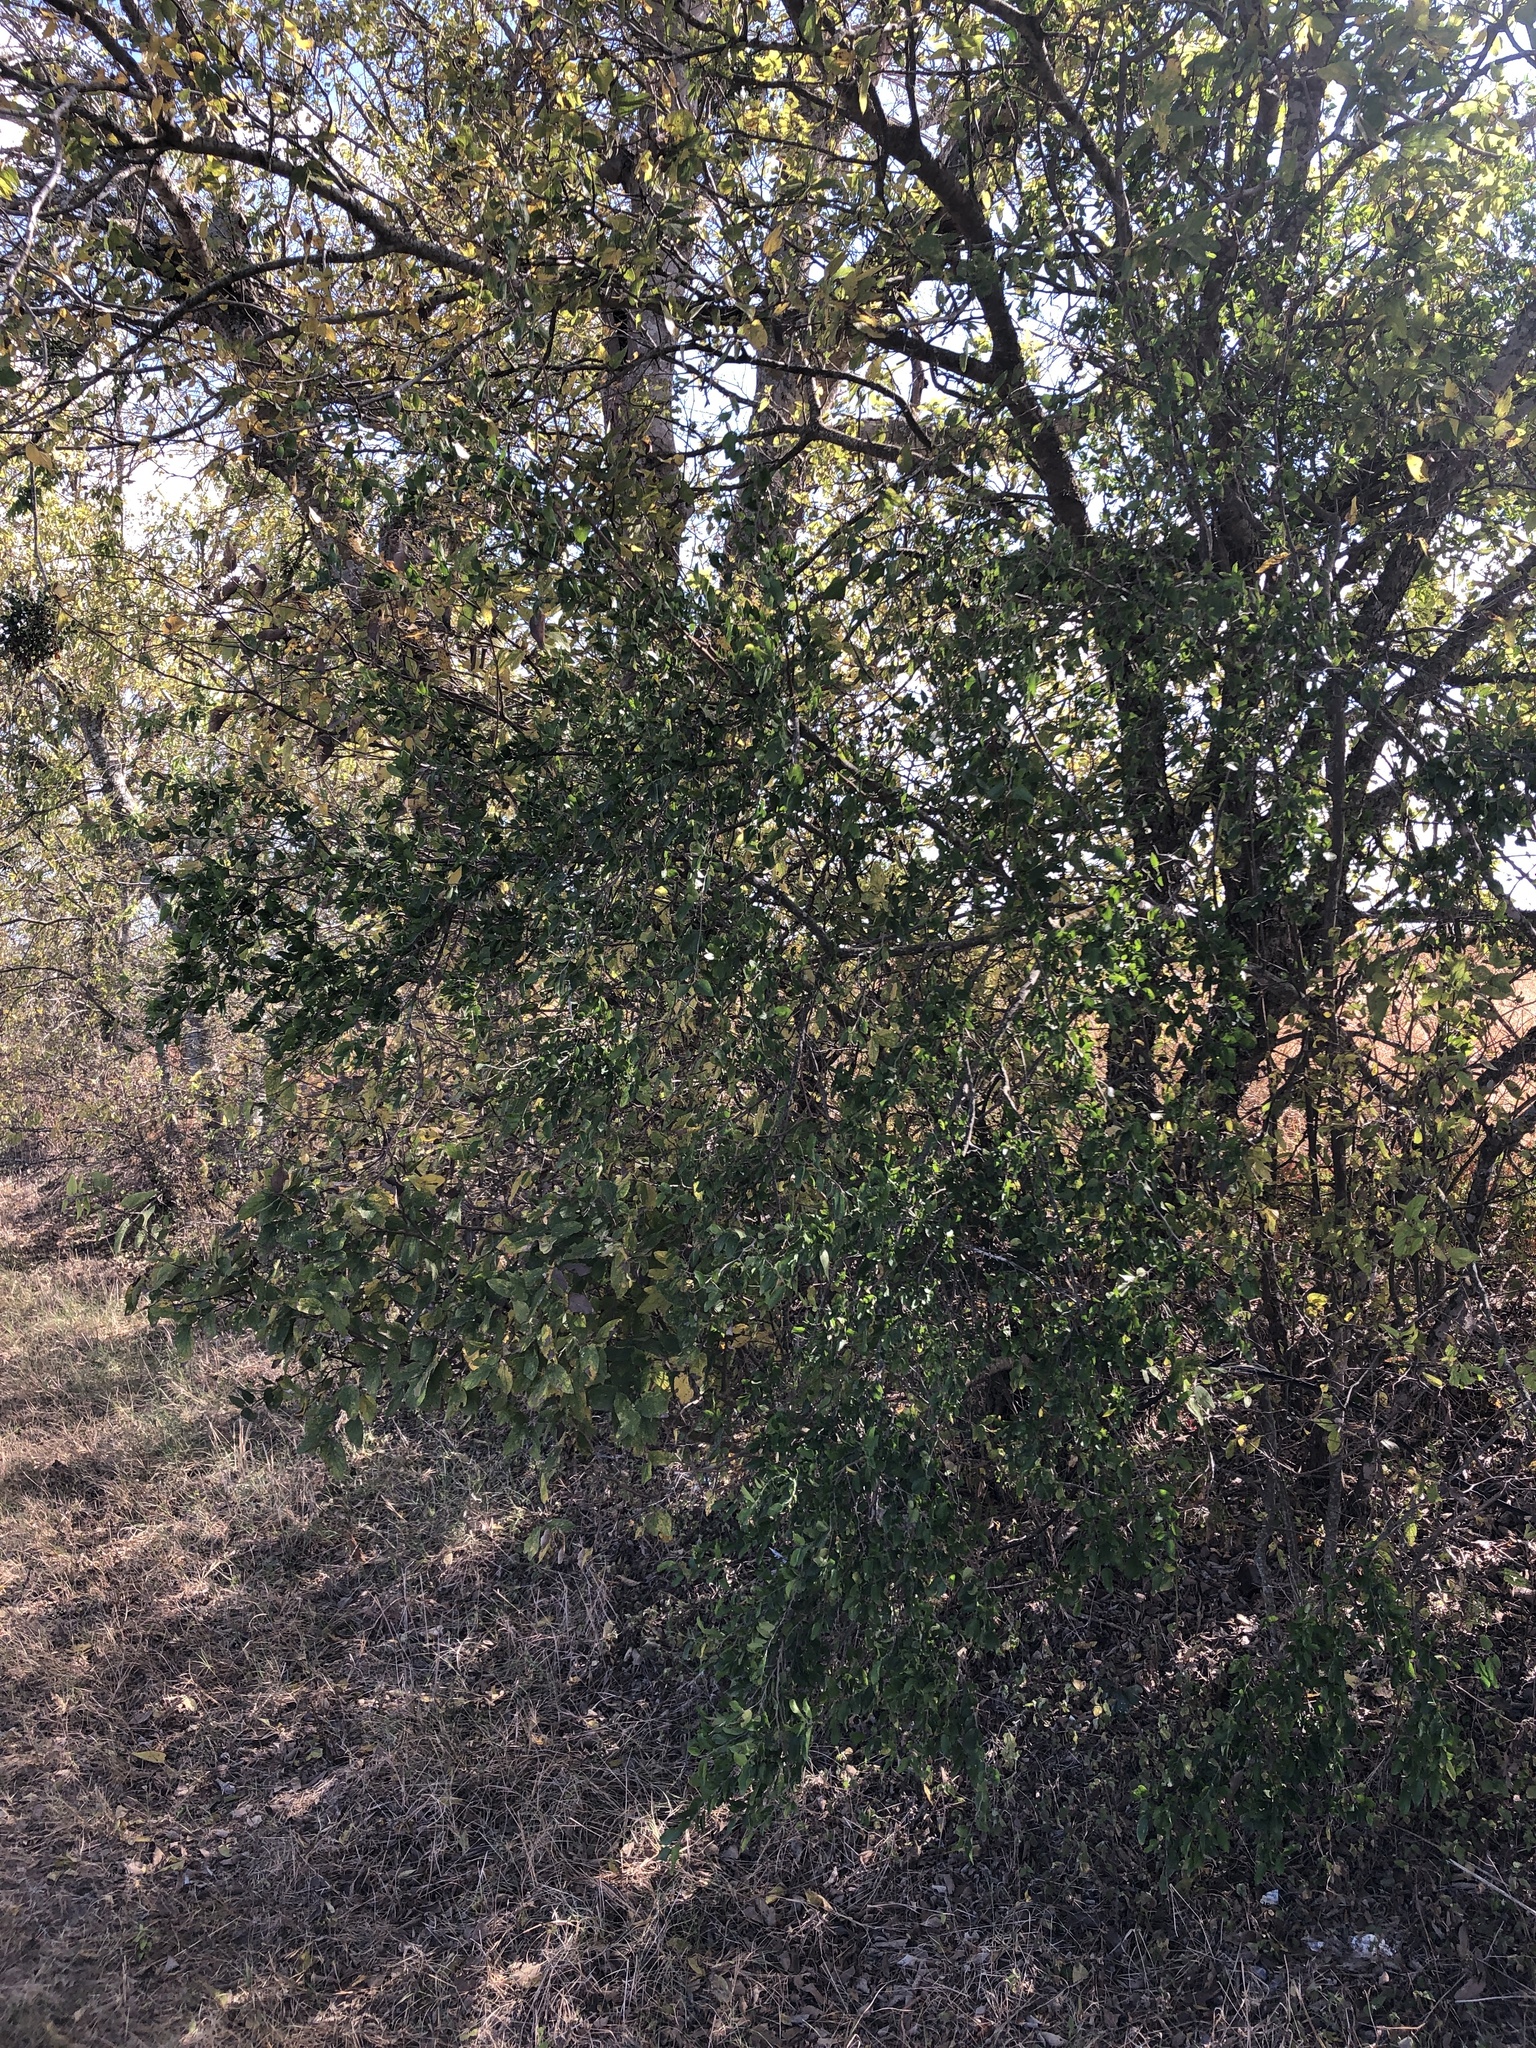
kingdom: Plantae
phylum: Tracheophyta
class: Magnoliopsida
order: Rosales
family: Cannabaceae
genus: Celtis
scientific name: Celtis pallida
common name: Desert hackberry
